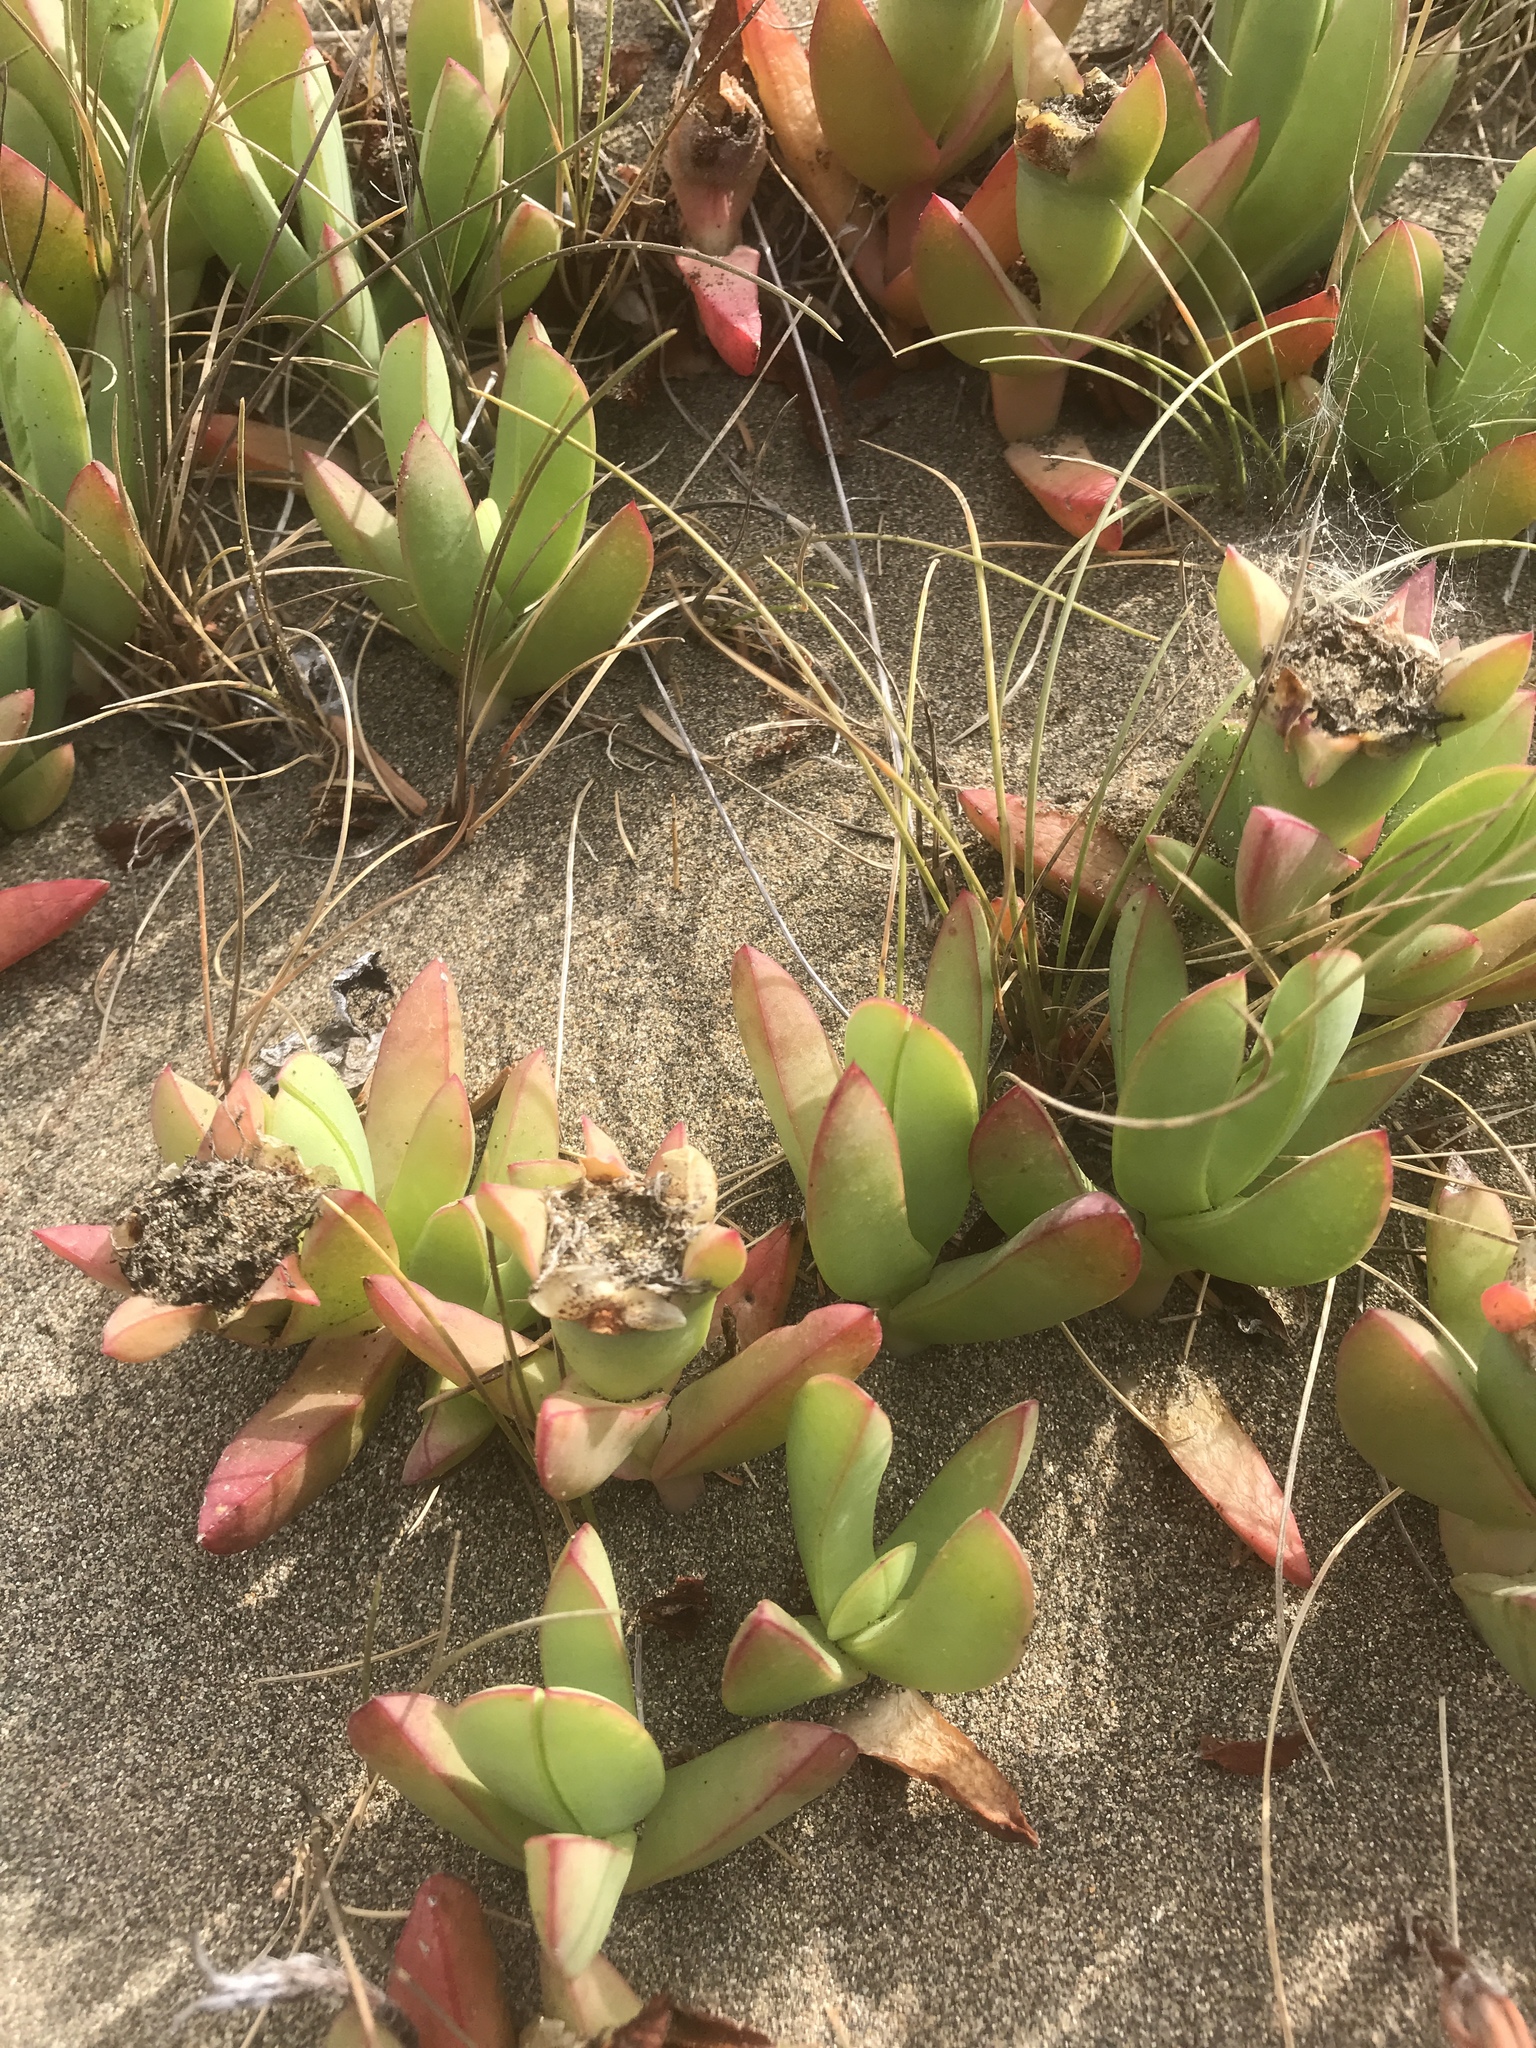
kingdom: Plantae
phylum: Tracheophyta
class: Magnoliopsida
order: Caryophyllales
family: Aizoaceae
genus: Carpobrotus
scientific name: Carpobrotus chilensis
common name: Sea fig
